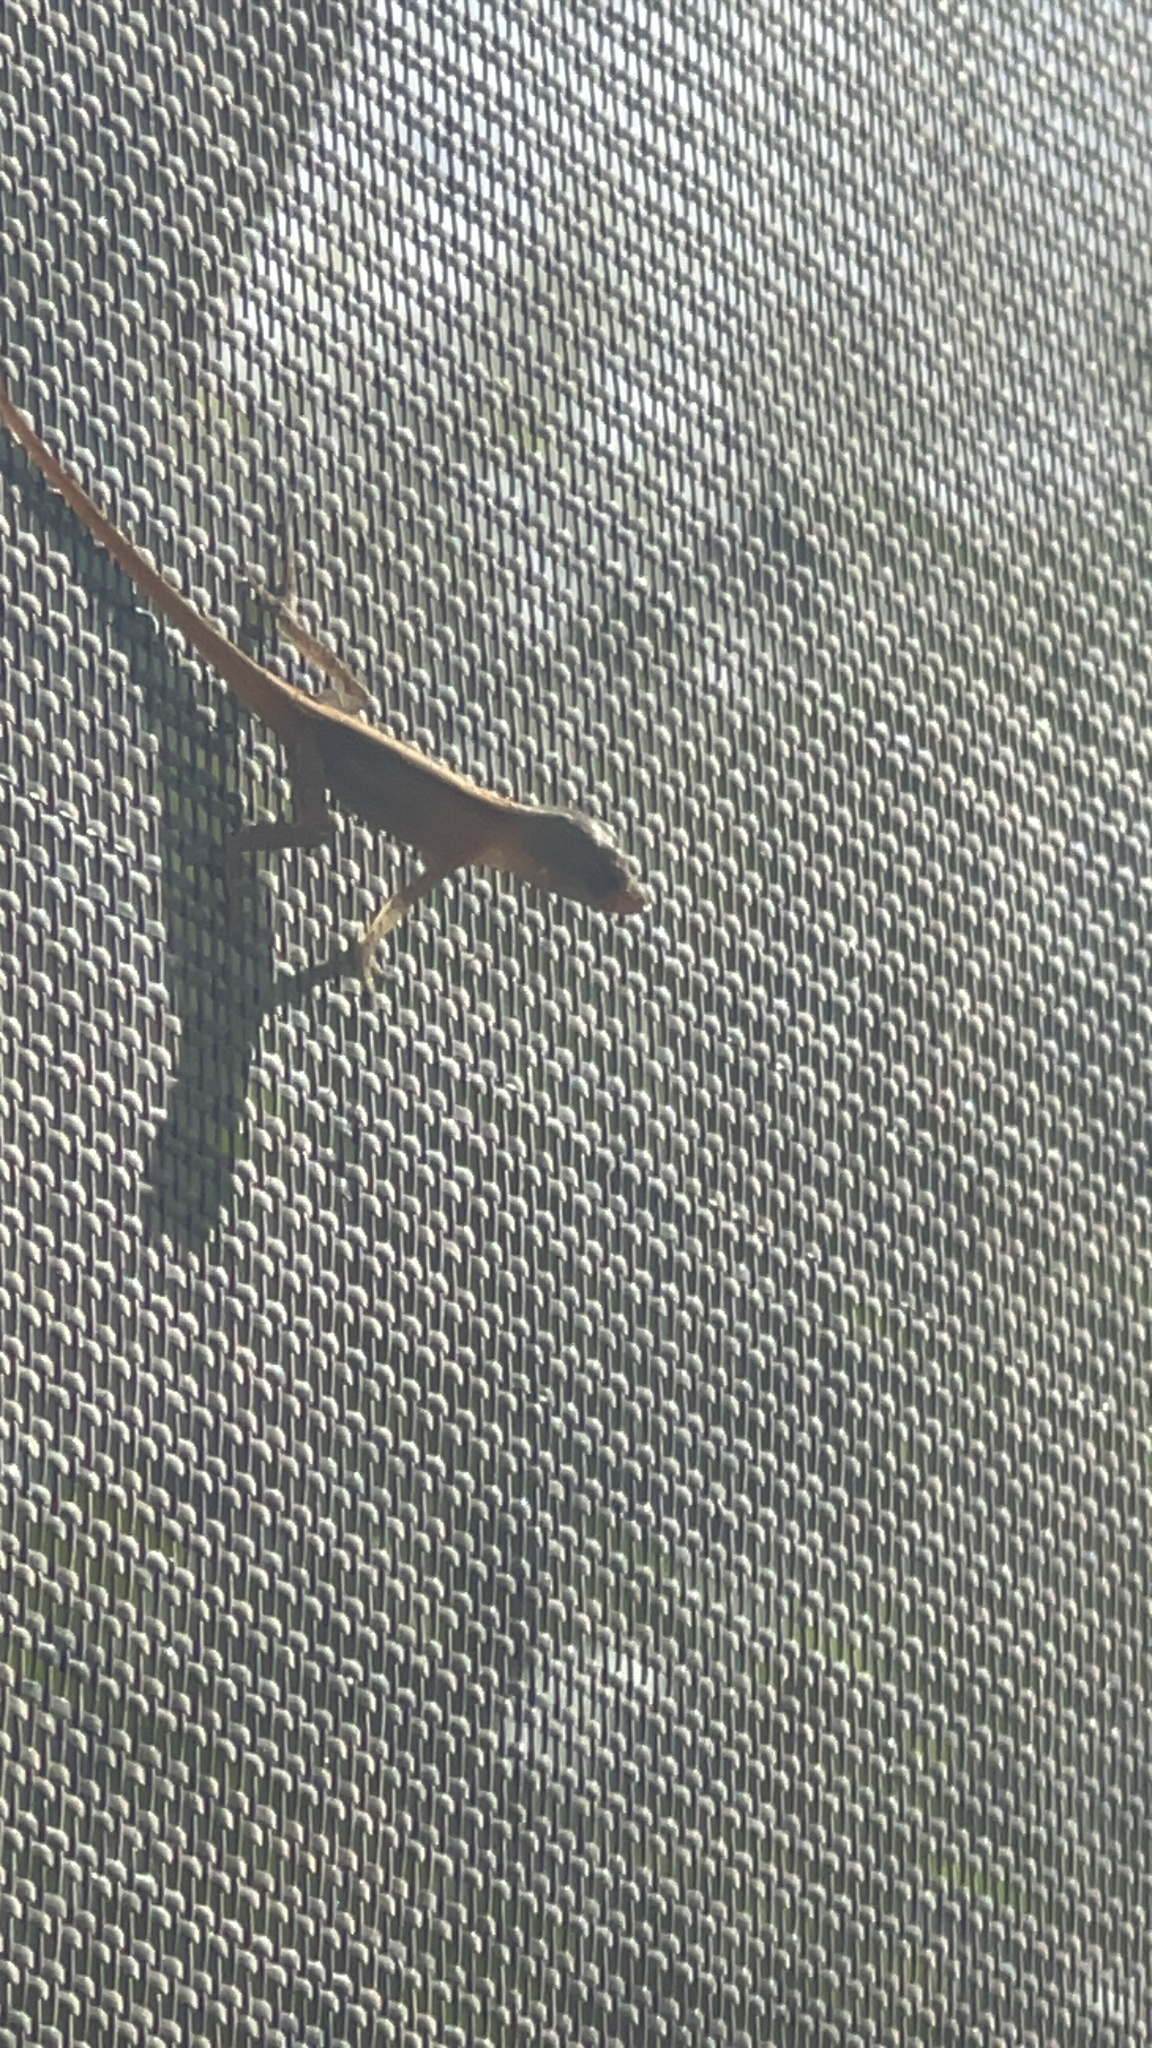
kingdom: Animalia
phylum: Chordata
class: Squamata
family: Dactyloidae
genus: Anolis
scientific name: Anolis sagrei
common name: Brown anole
